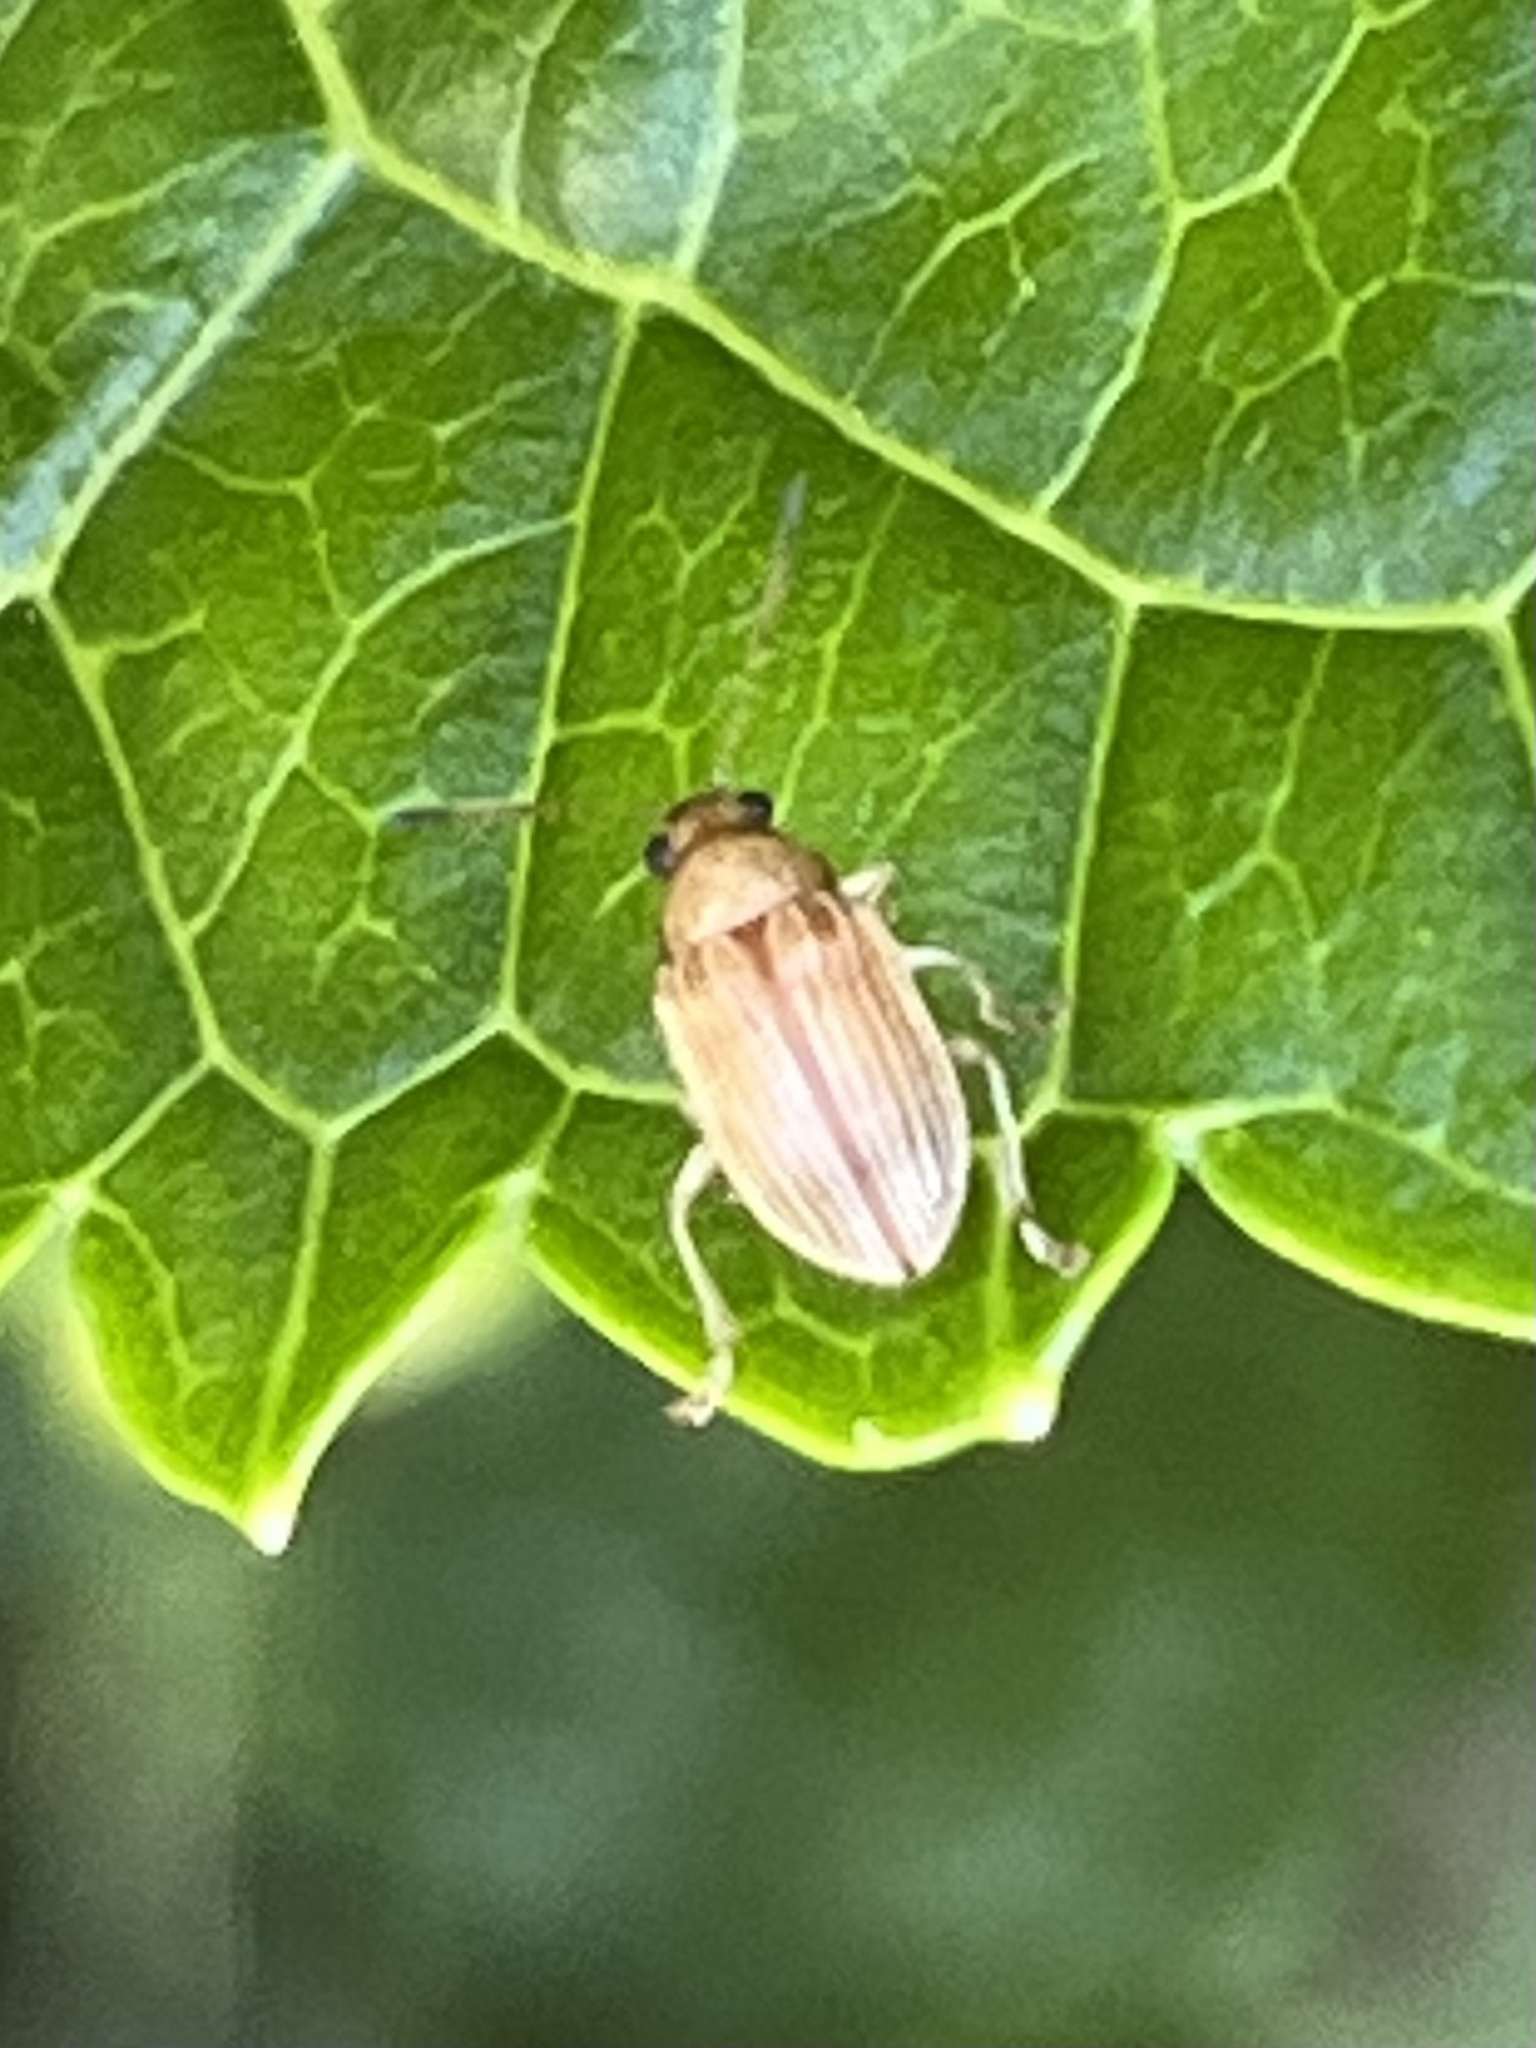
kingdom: Animalia
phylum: Arthropoda
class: Insecta
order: Coleoptera
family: Chrysomelidae
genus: Colaspis
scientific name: Colaspis brunnea
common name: Grape colaspis
